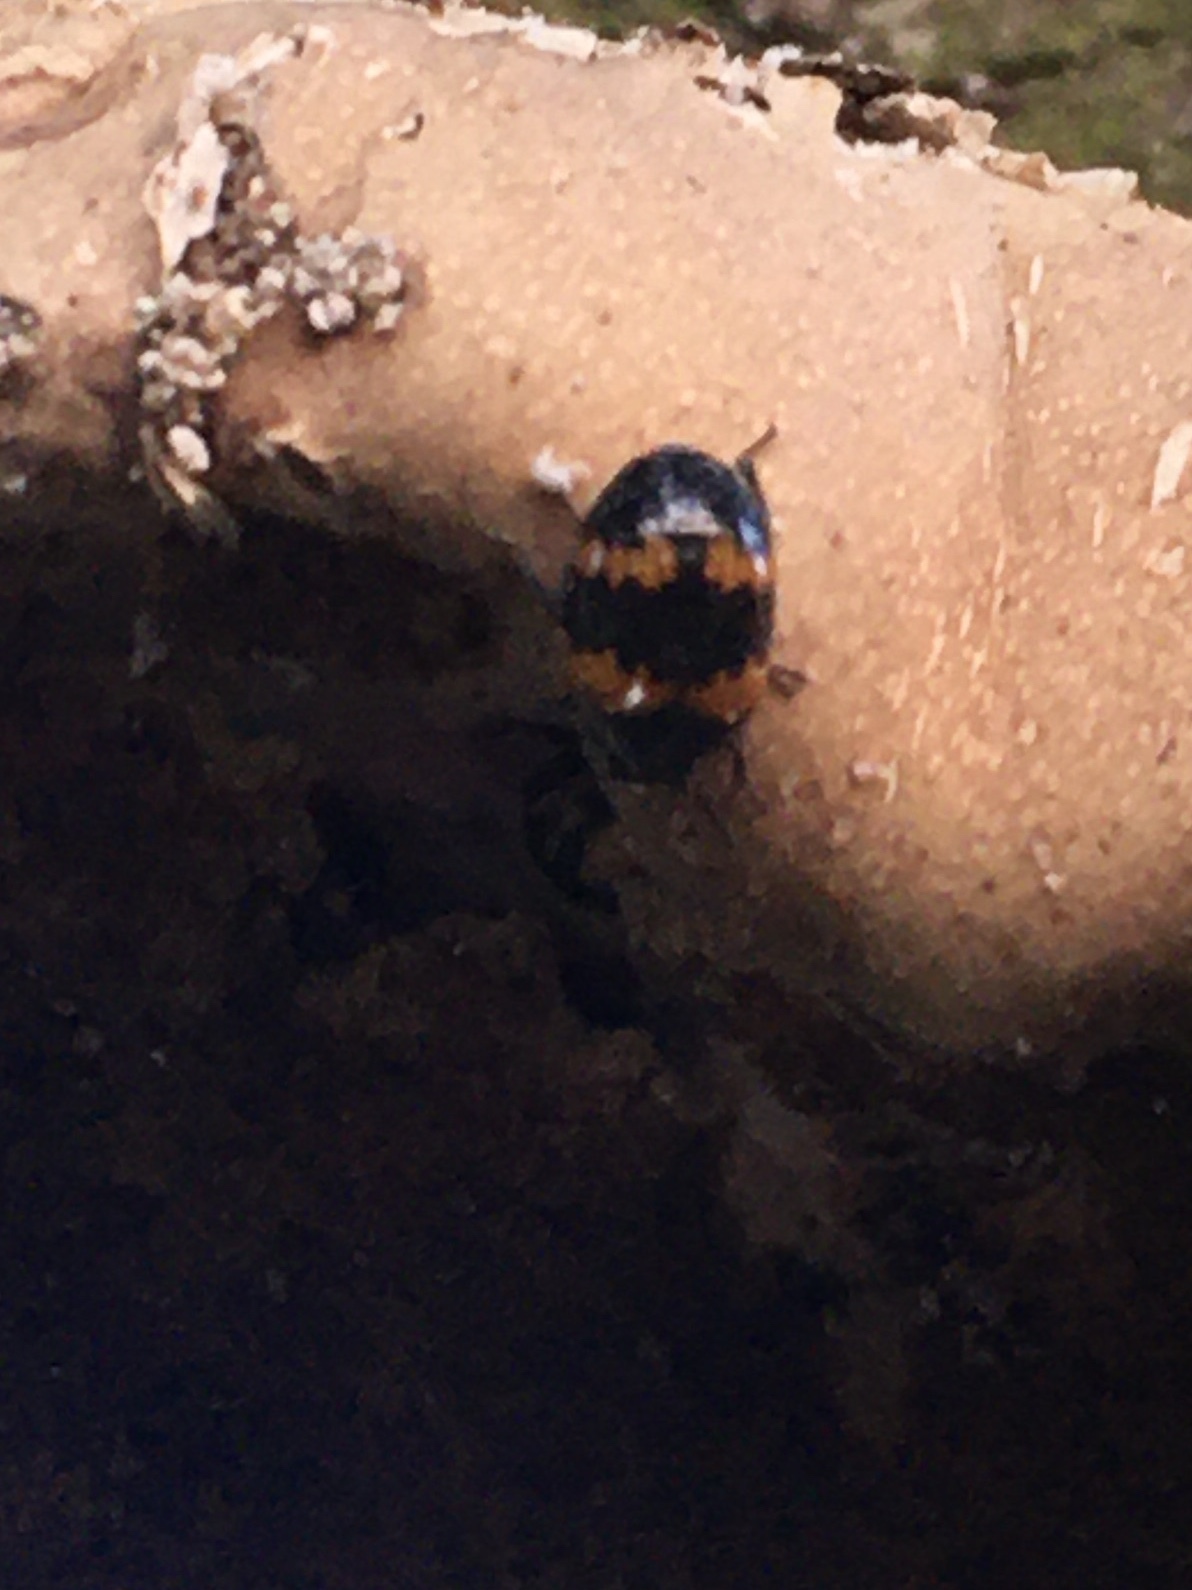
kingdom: Animalia
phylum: Arthropoda
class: Insecta
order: Coleoptera
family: Tenebrionidae
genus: Diaperis
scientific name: Diaperis boleti
